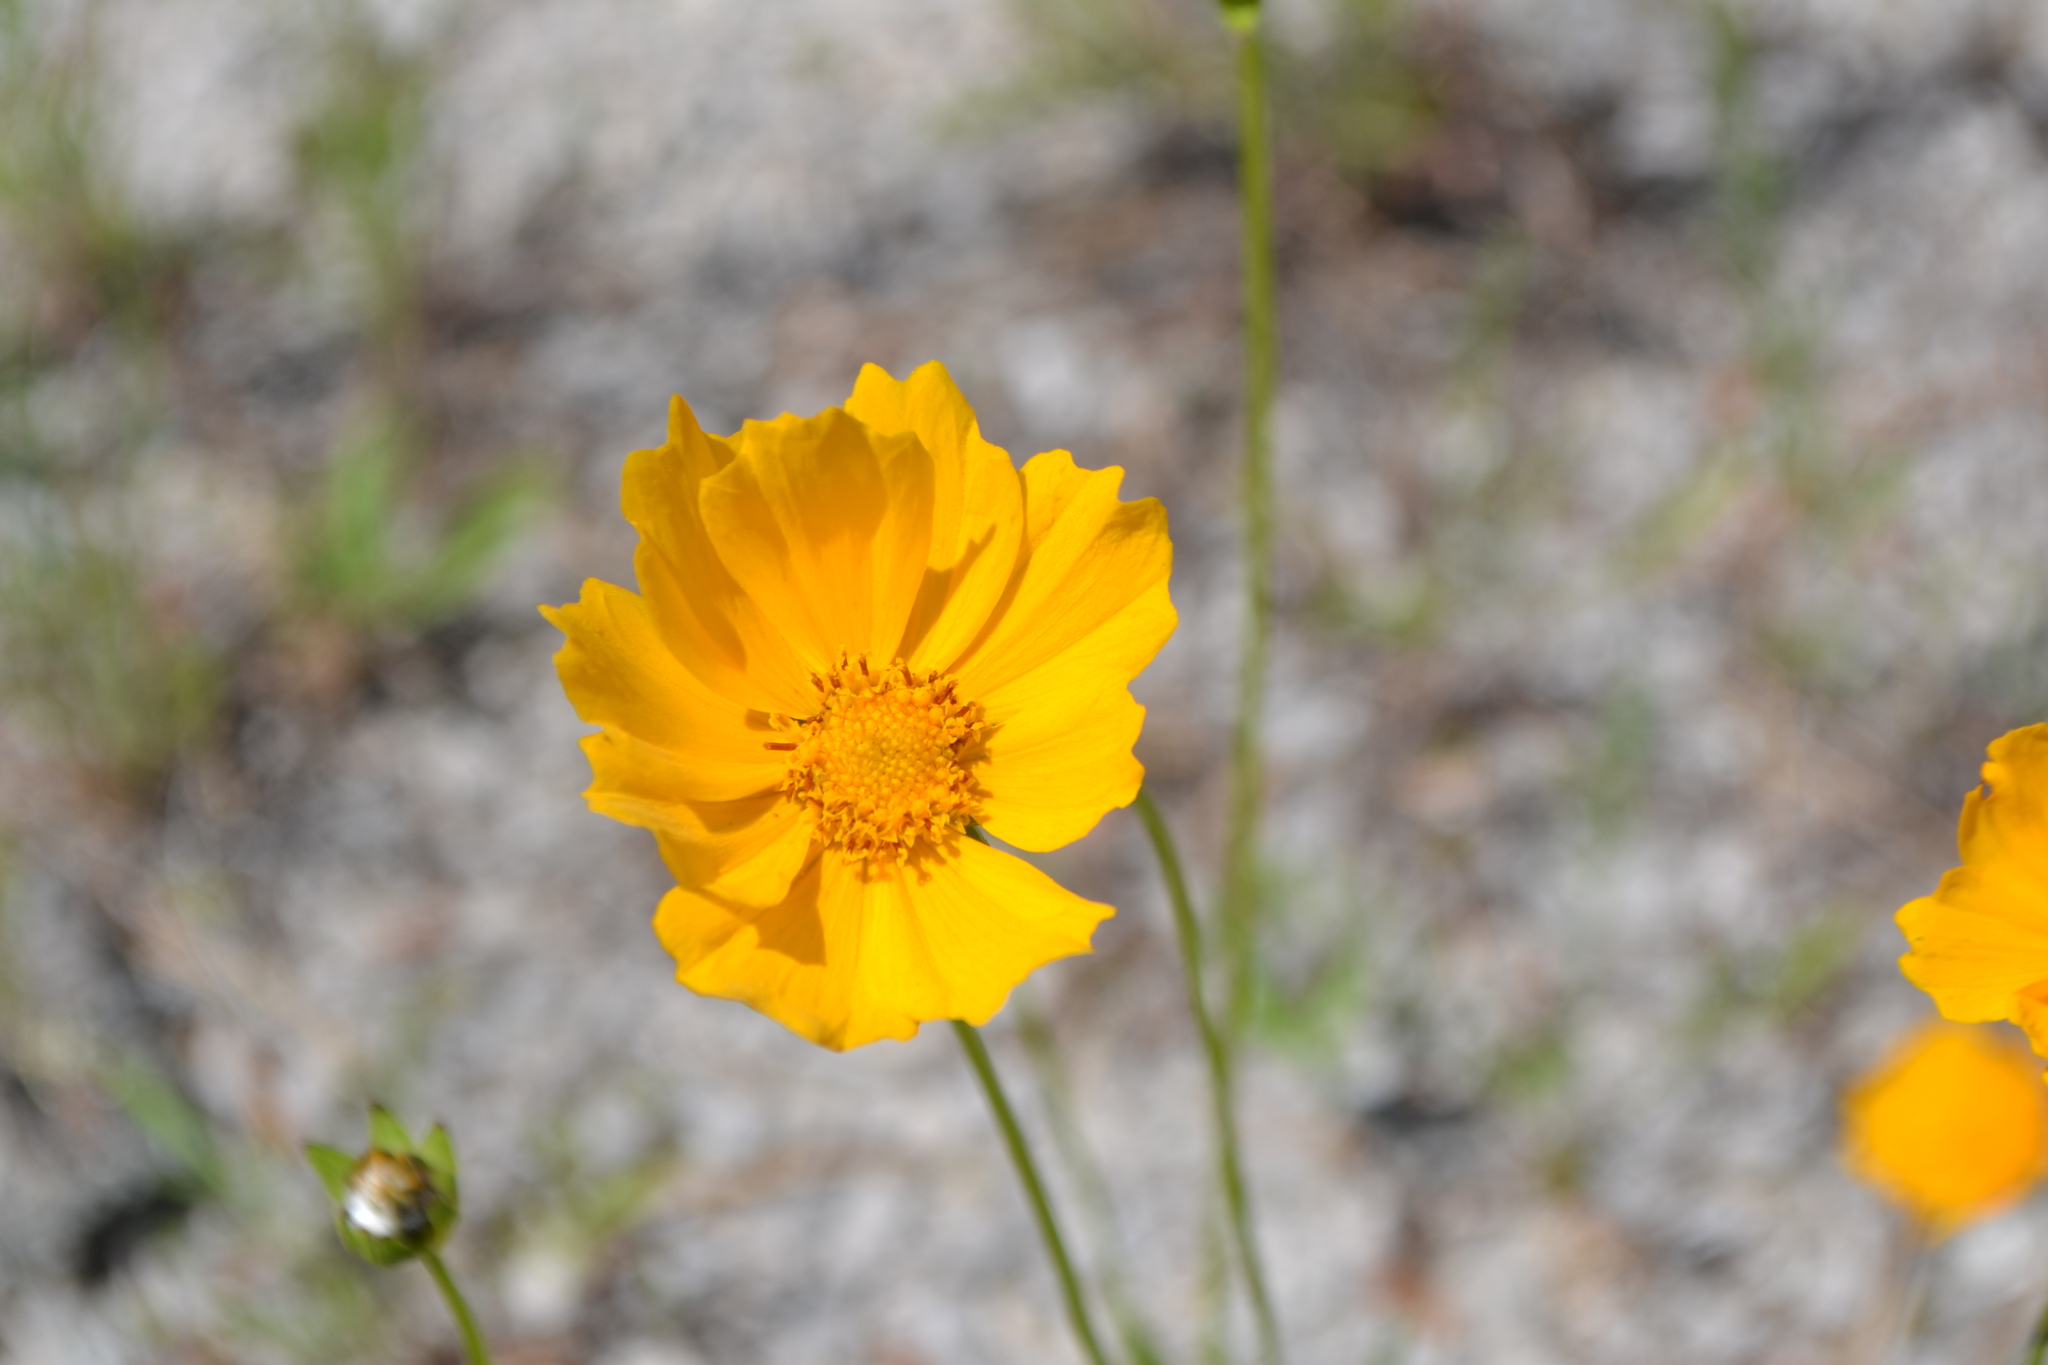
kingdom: Plantae
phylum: Tracheophyta
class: Magnoliopsida
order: Asterales
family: Asteraceae
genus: Coreopsis
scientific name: Coreopsis lanceolata
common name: Garden coreopsis
